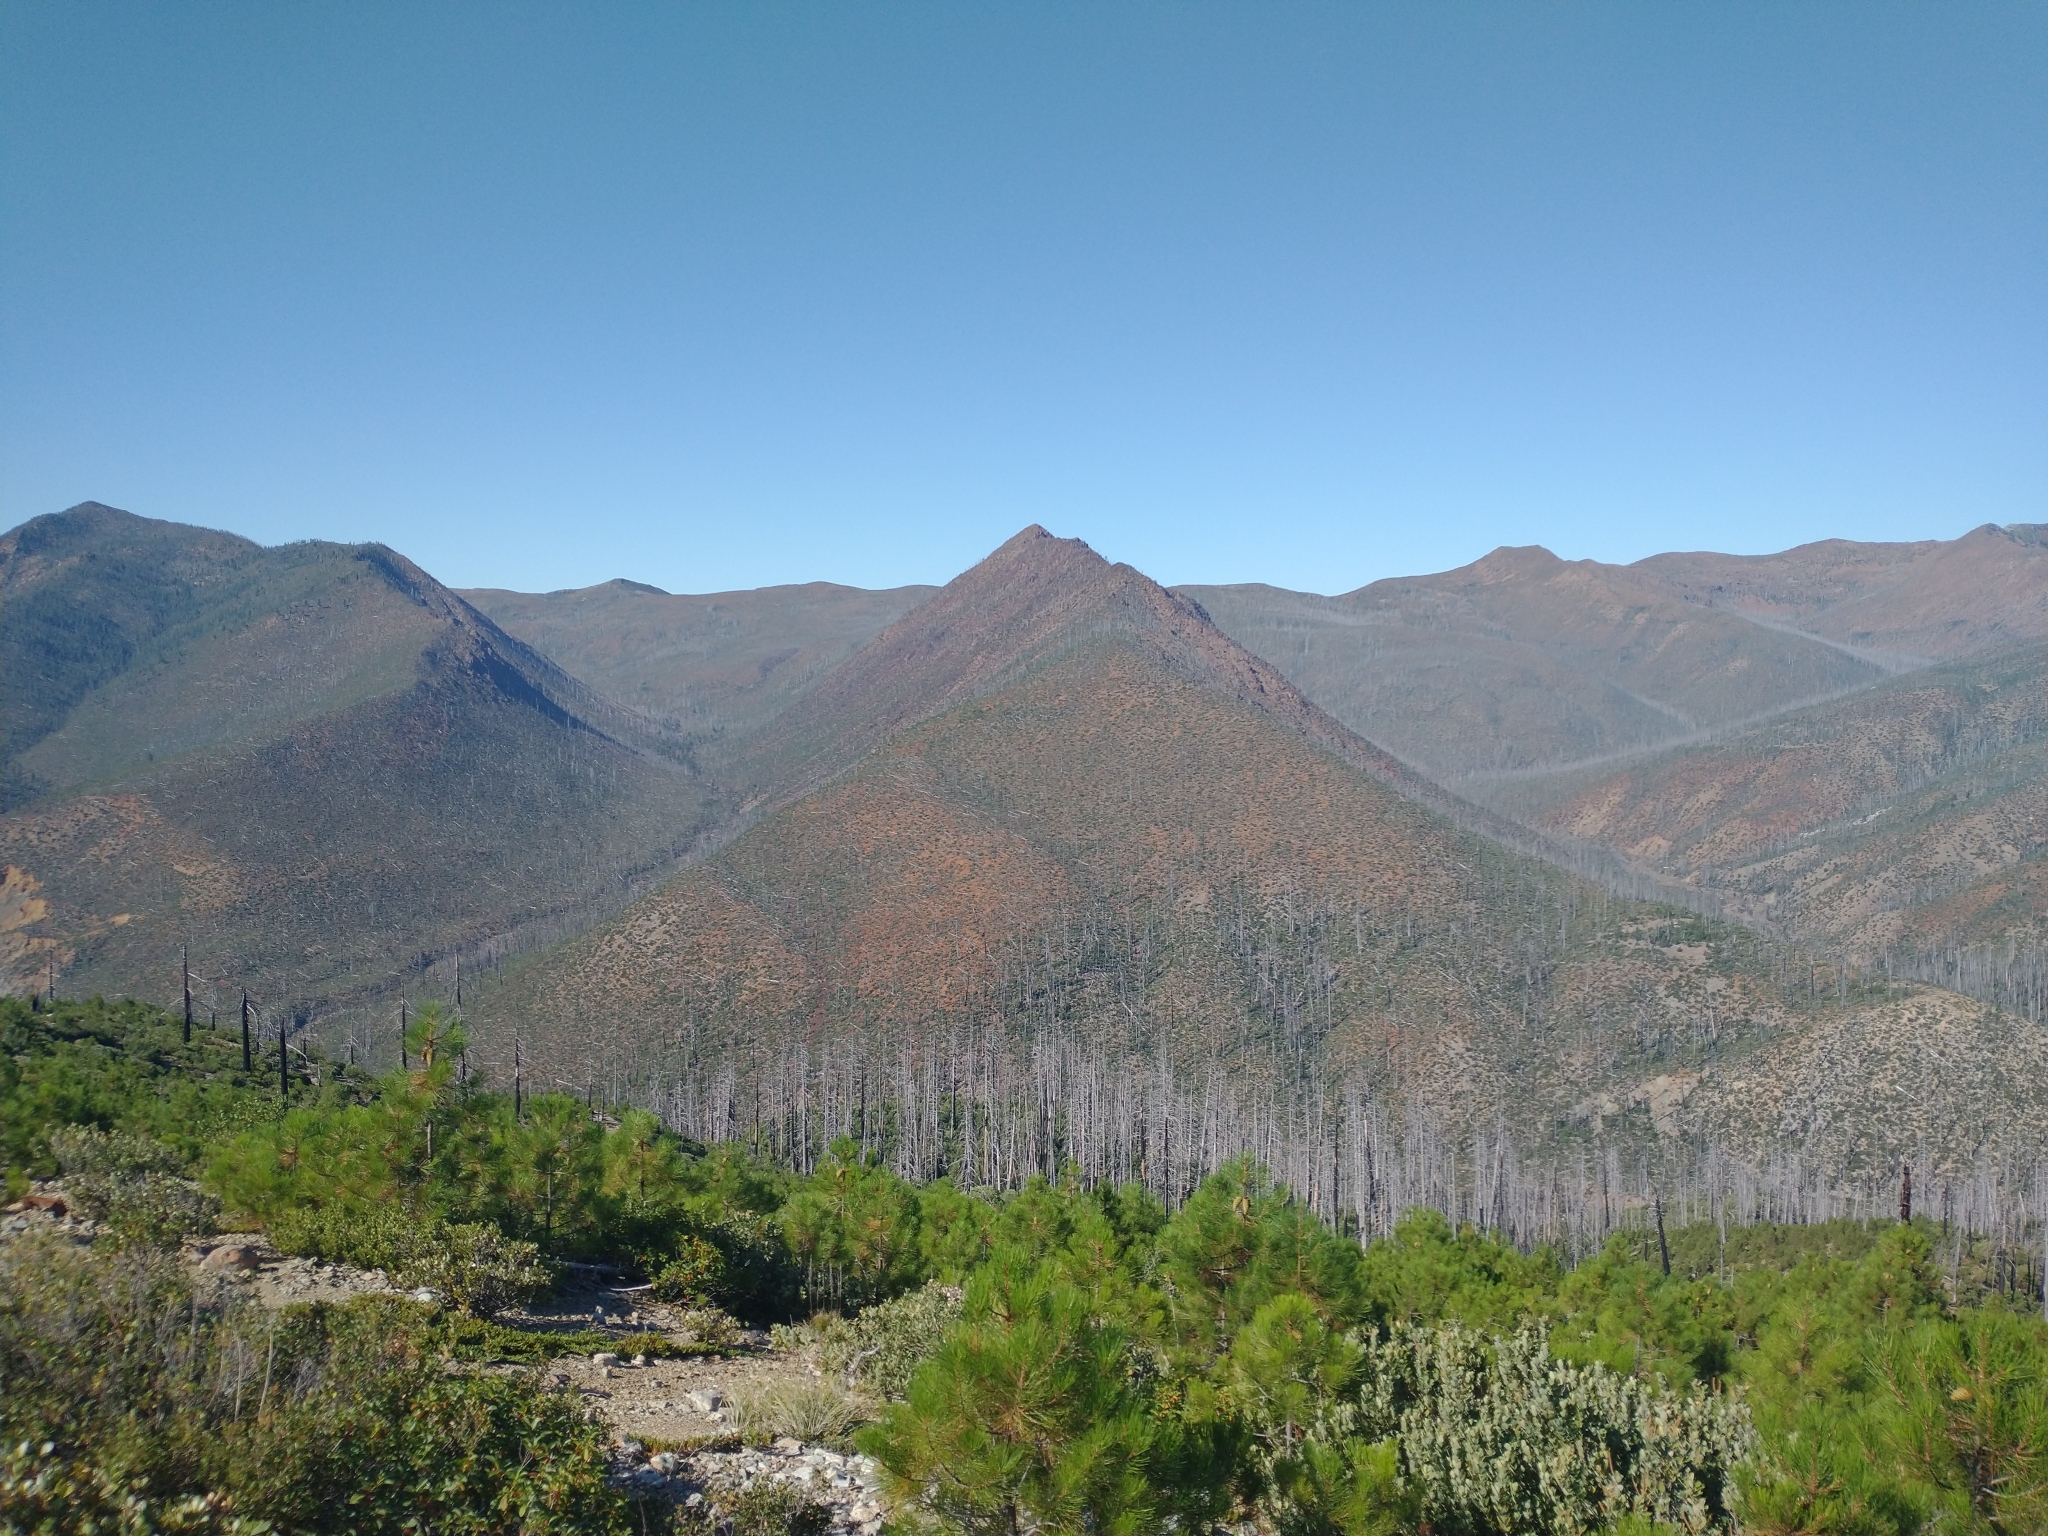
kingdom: Plantae
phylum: Tracheophyta
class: Pinopsida
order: Pinales
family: Pinaceae
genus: Pinus
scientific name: Pinus attenuata
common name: Knobcone pine
